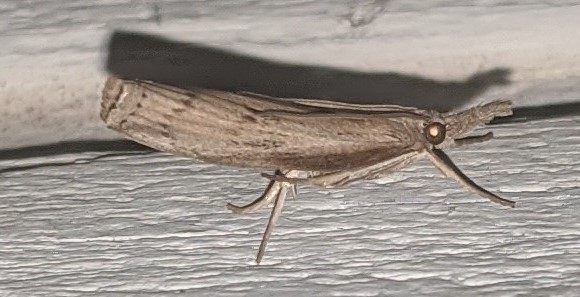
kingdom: Animalia
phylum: Arthropoda
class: Insecta
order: Lepidoptera
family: Crambidae
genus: Fissicrambus
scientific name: Fissicrambus mutabilis
